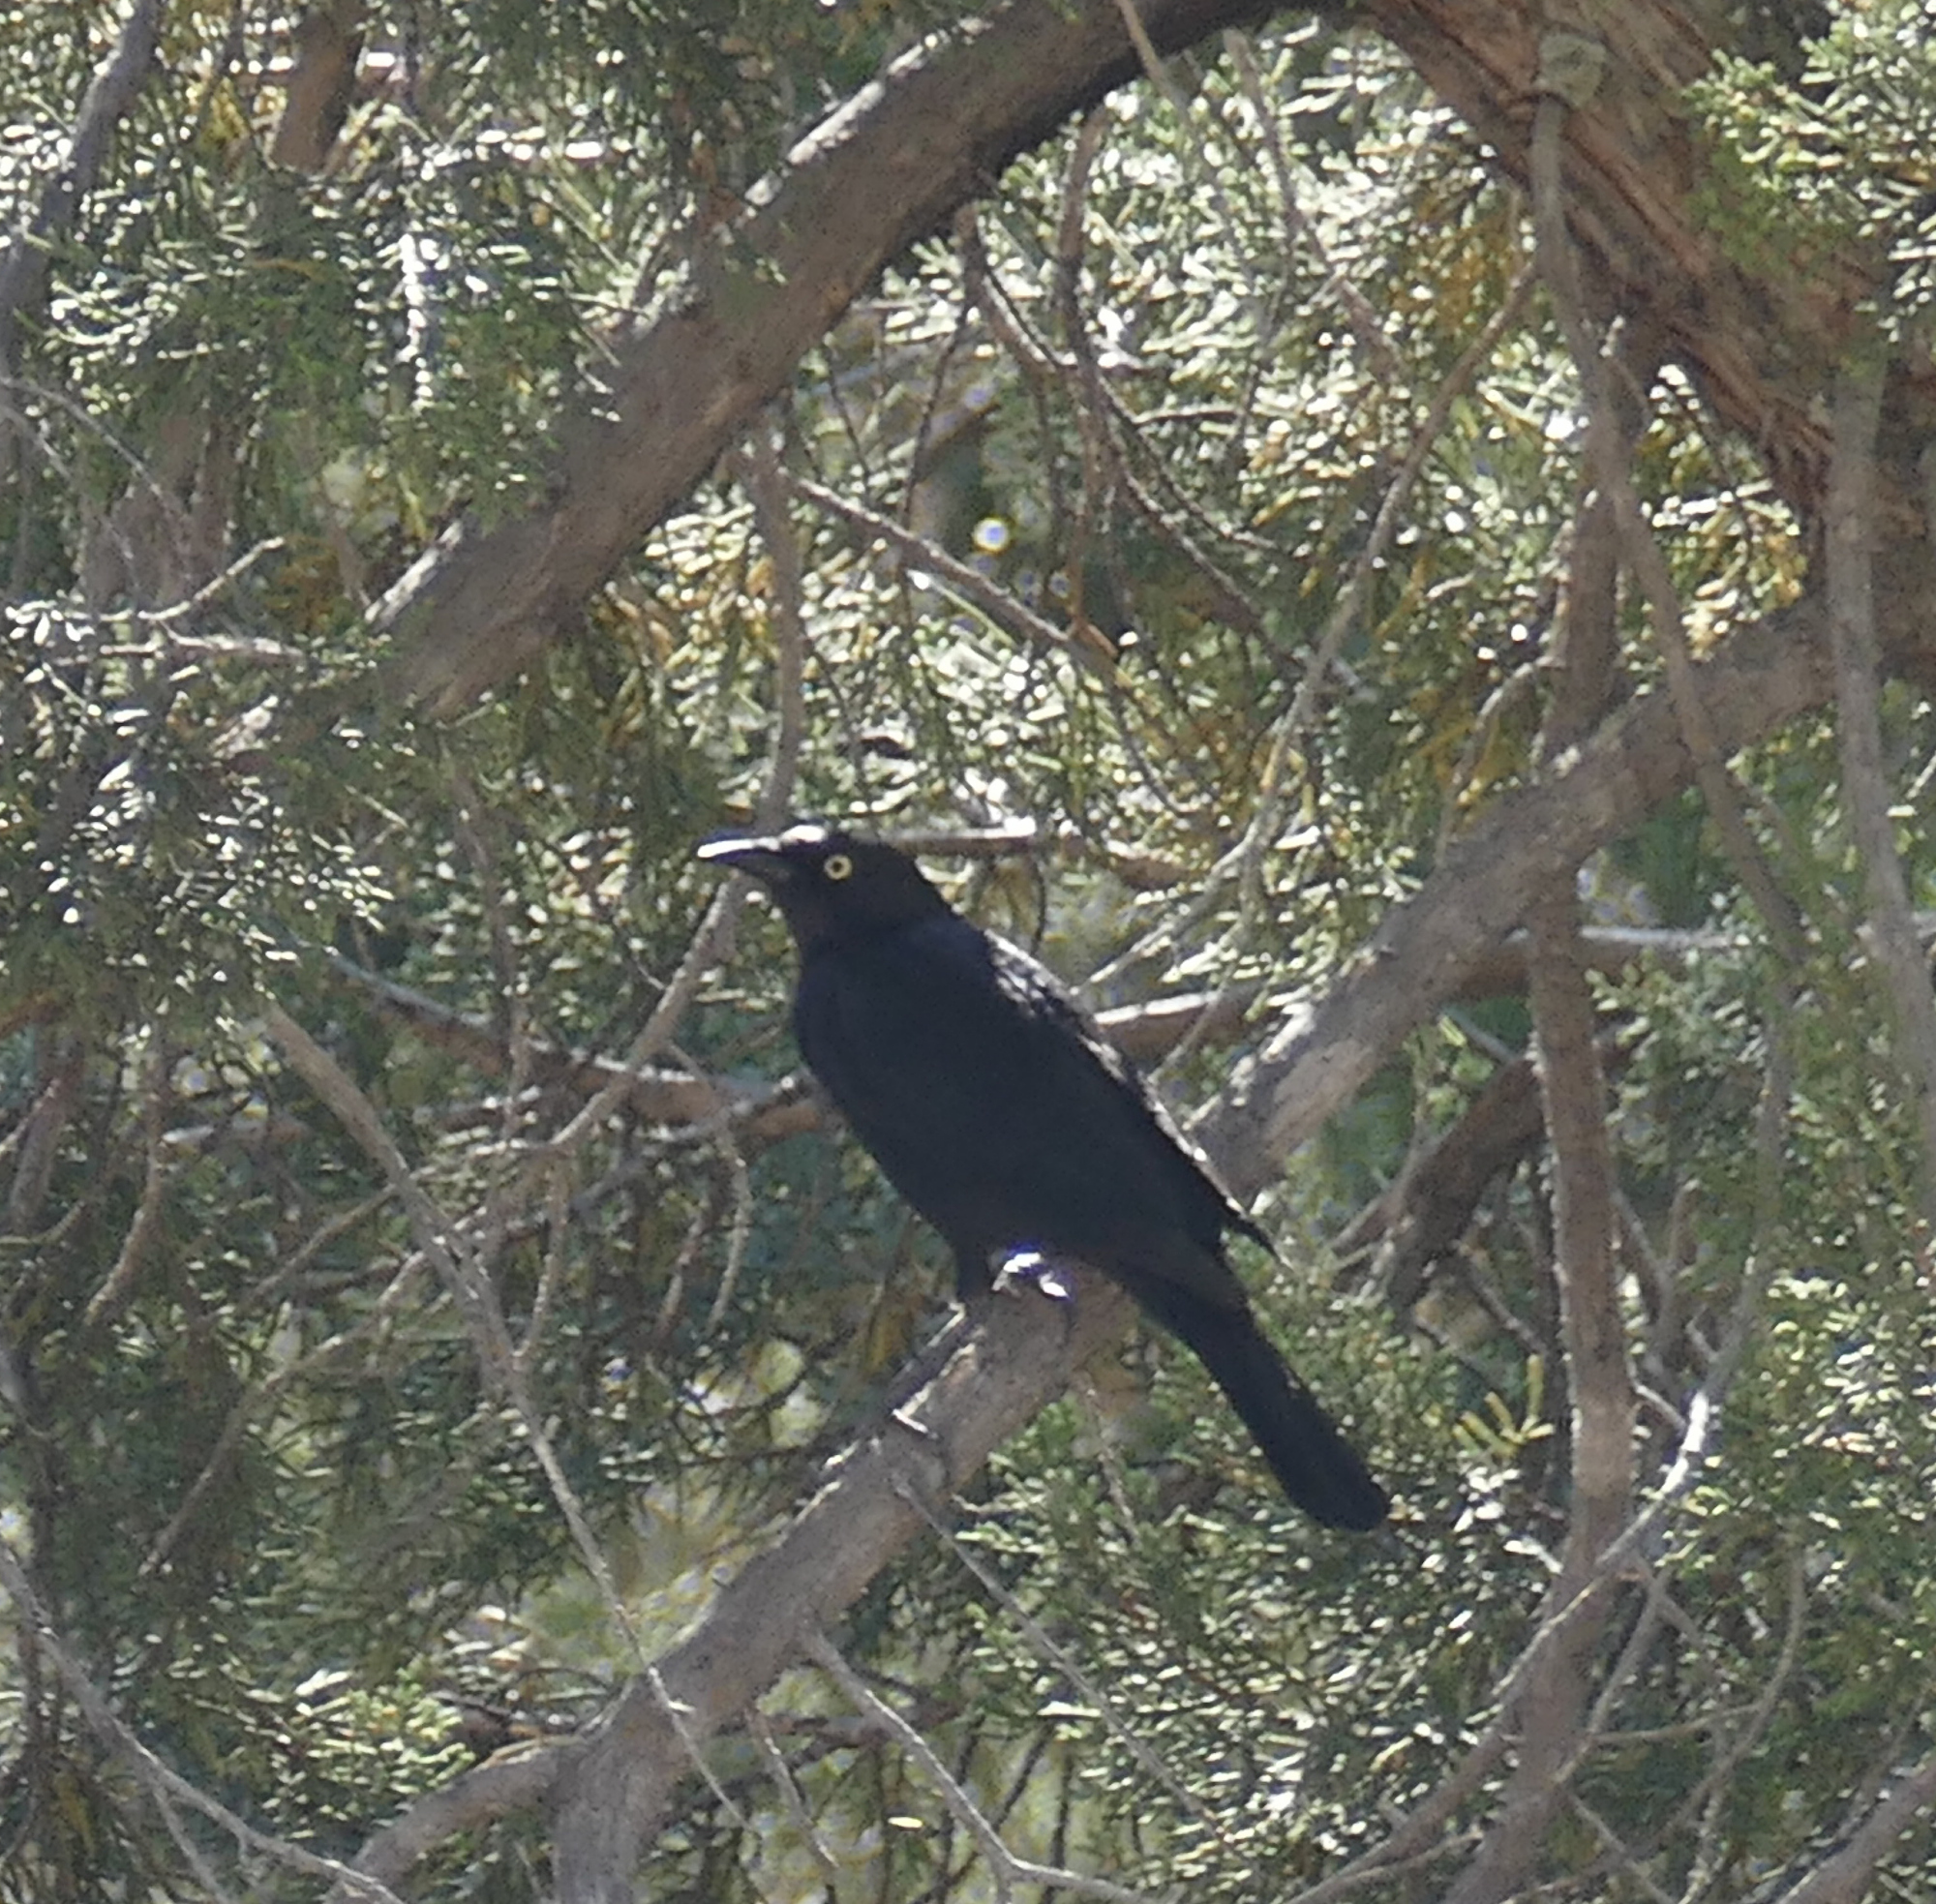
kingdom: Animalia
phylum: Chordata
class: Aves
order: Passeriformes
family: Icteridae
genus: Euphagus
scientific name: Euphagus cyanocephalus
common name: Brewer's blackbird
